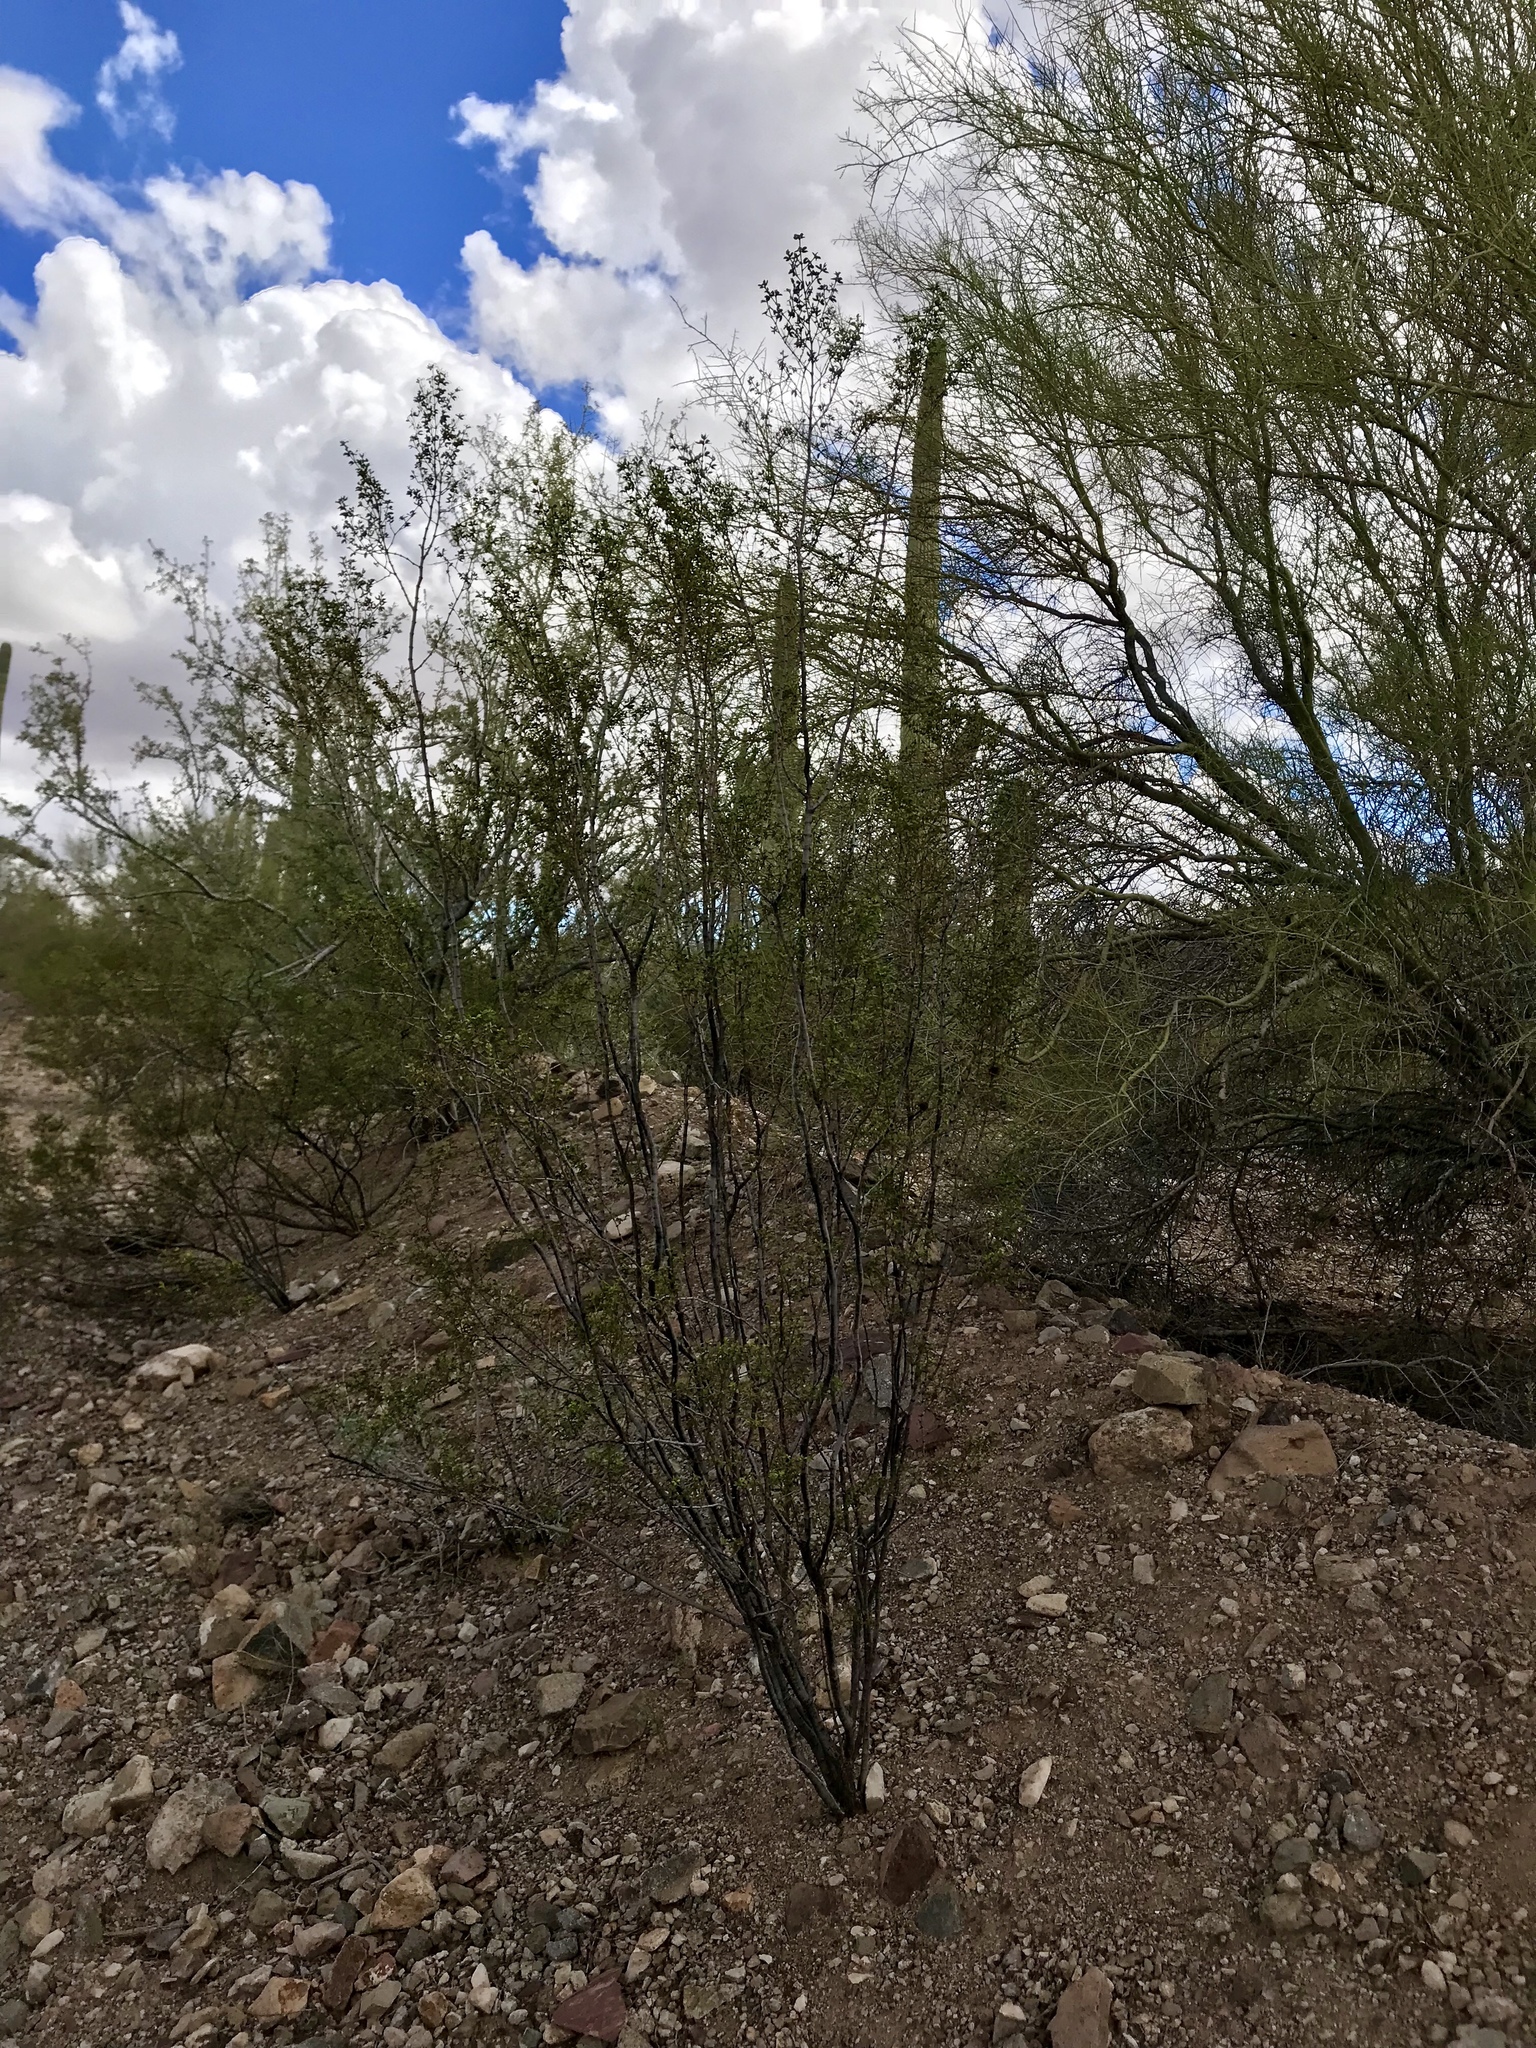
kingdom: Plantae
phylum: Tracheophyta
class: Magnoliopsida
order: Zygophyllales
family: Zygophyllaceae
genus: Larrea
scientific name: Larrea tridentata
